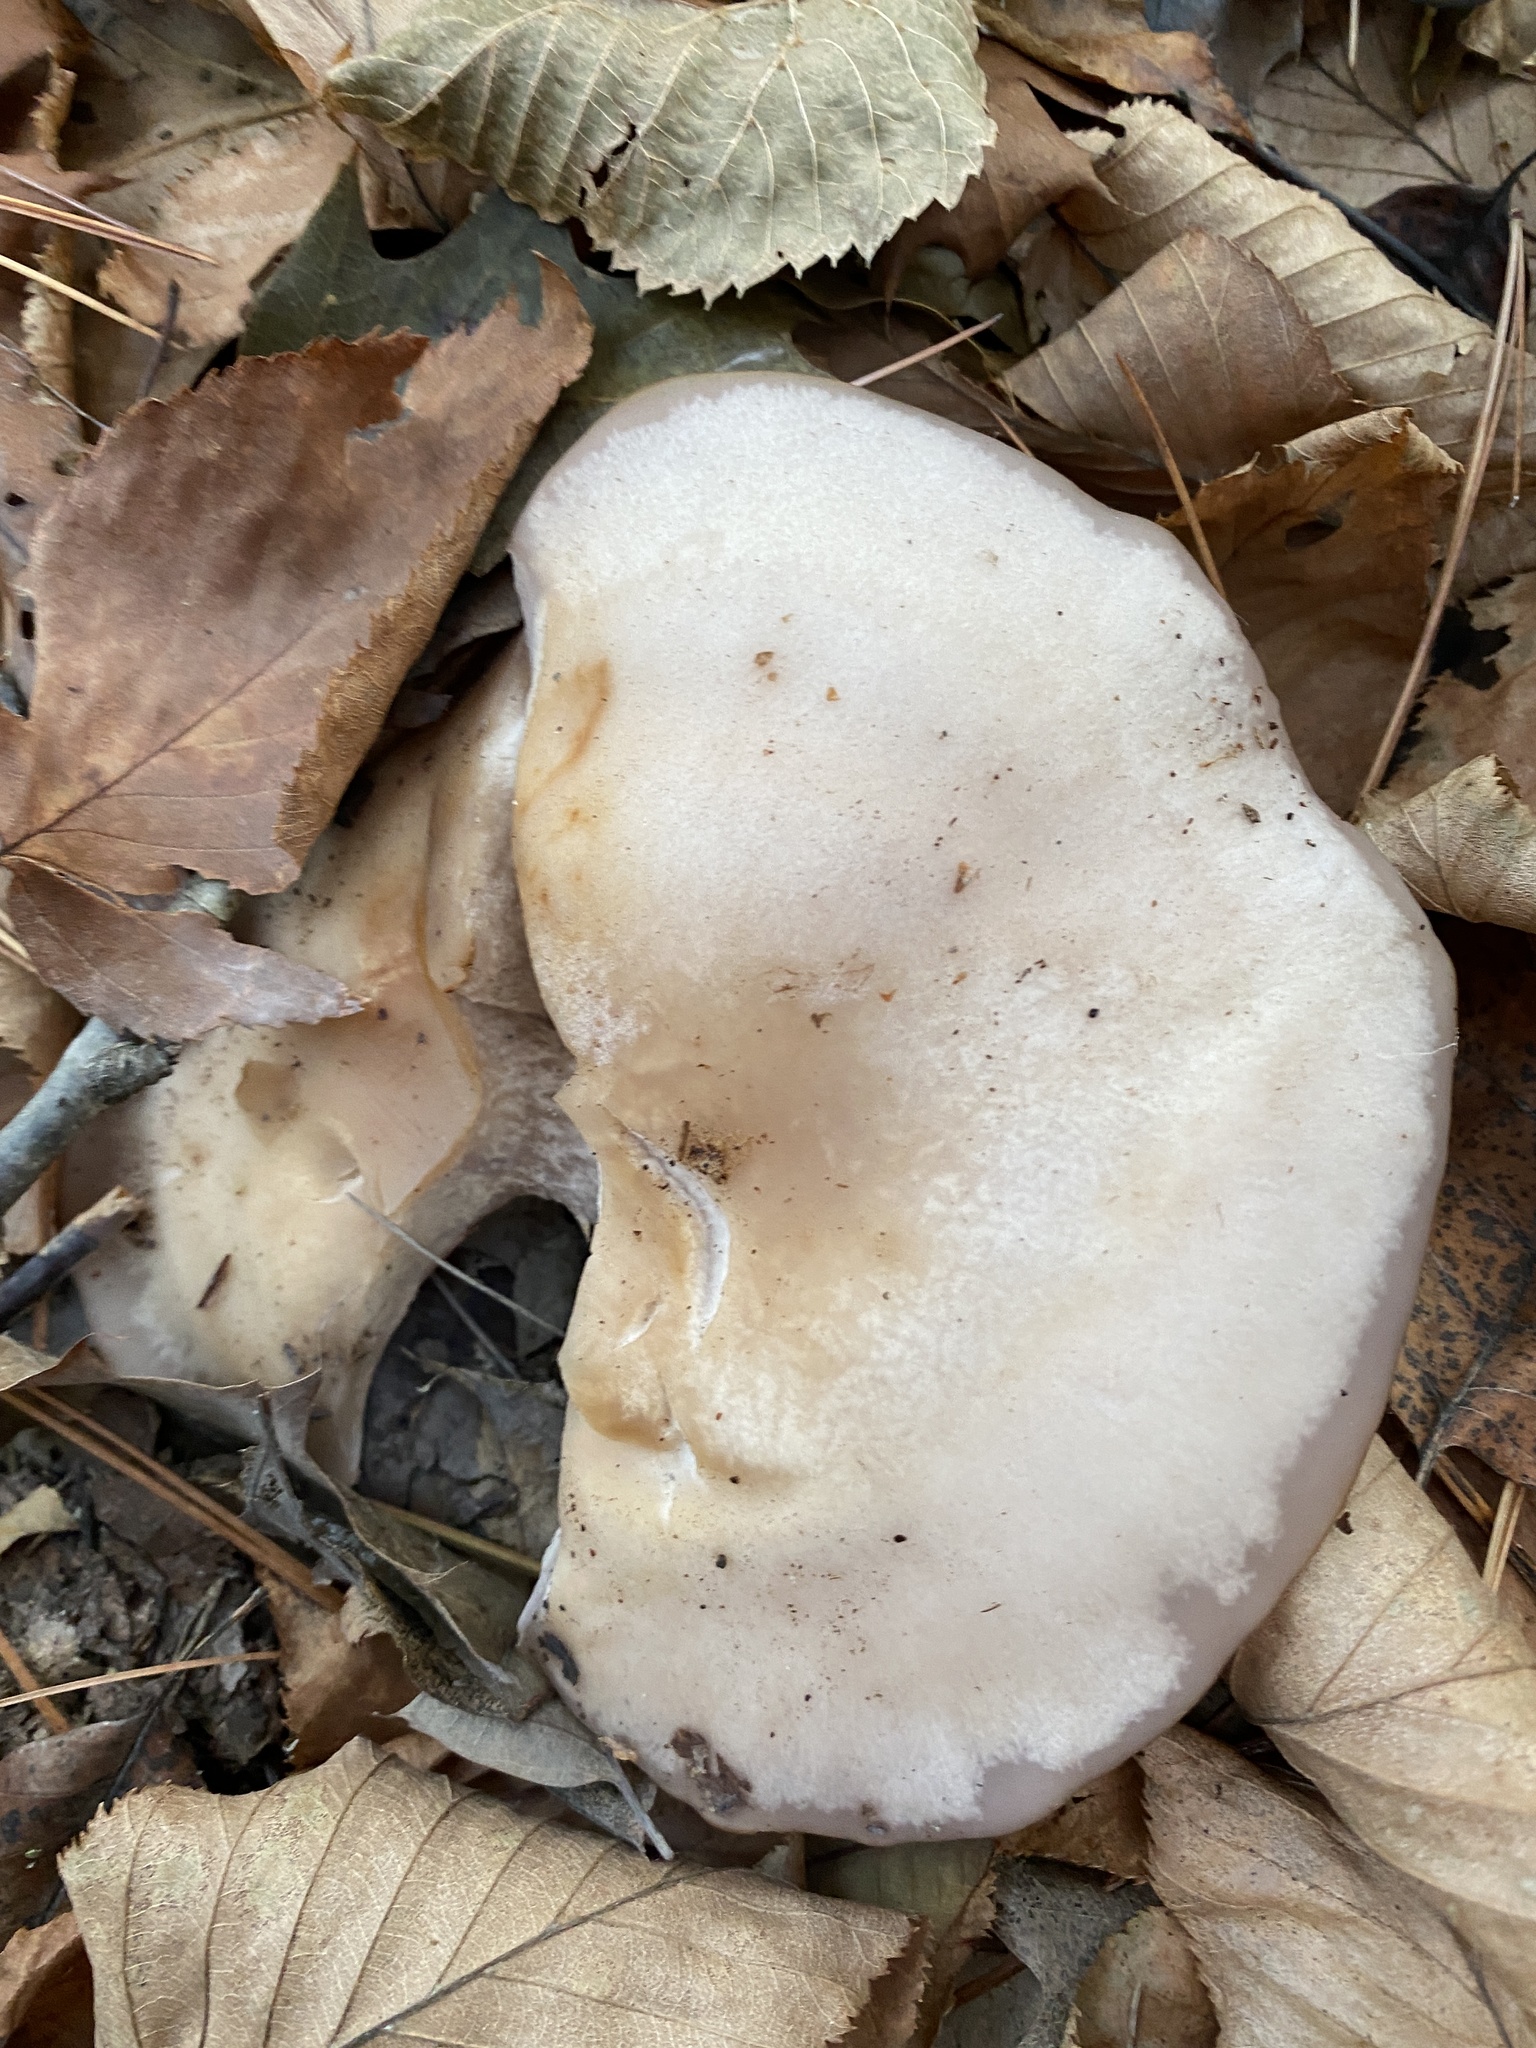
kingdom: Fungi
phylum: Basidiomycota
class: Agaricomycetes
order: Agaricales
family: Tricholomataceae
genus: Collybia
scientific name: Collybia
